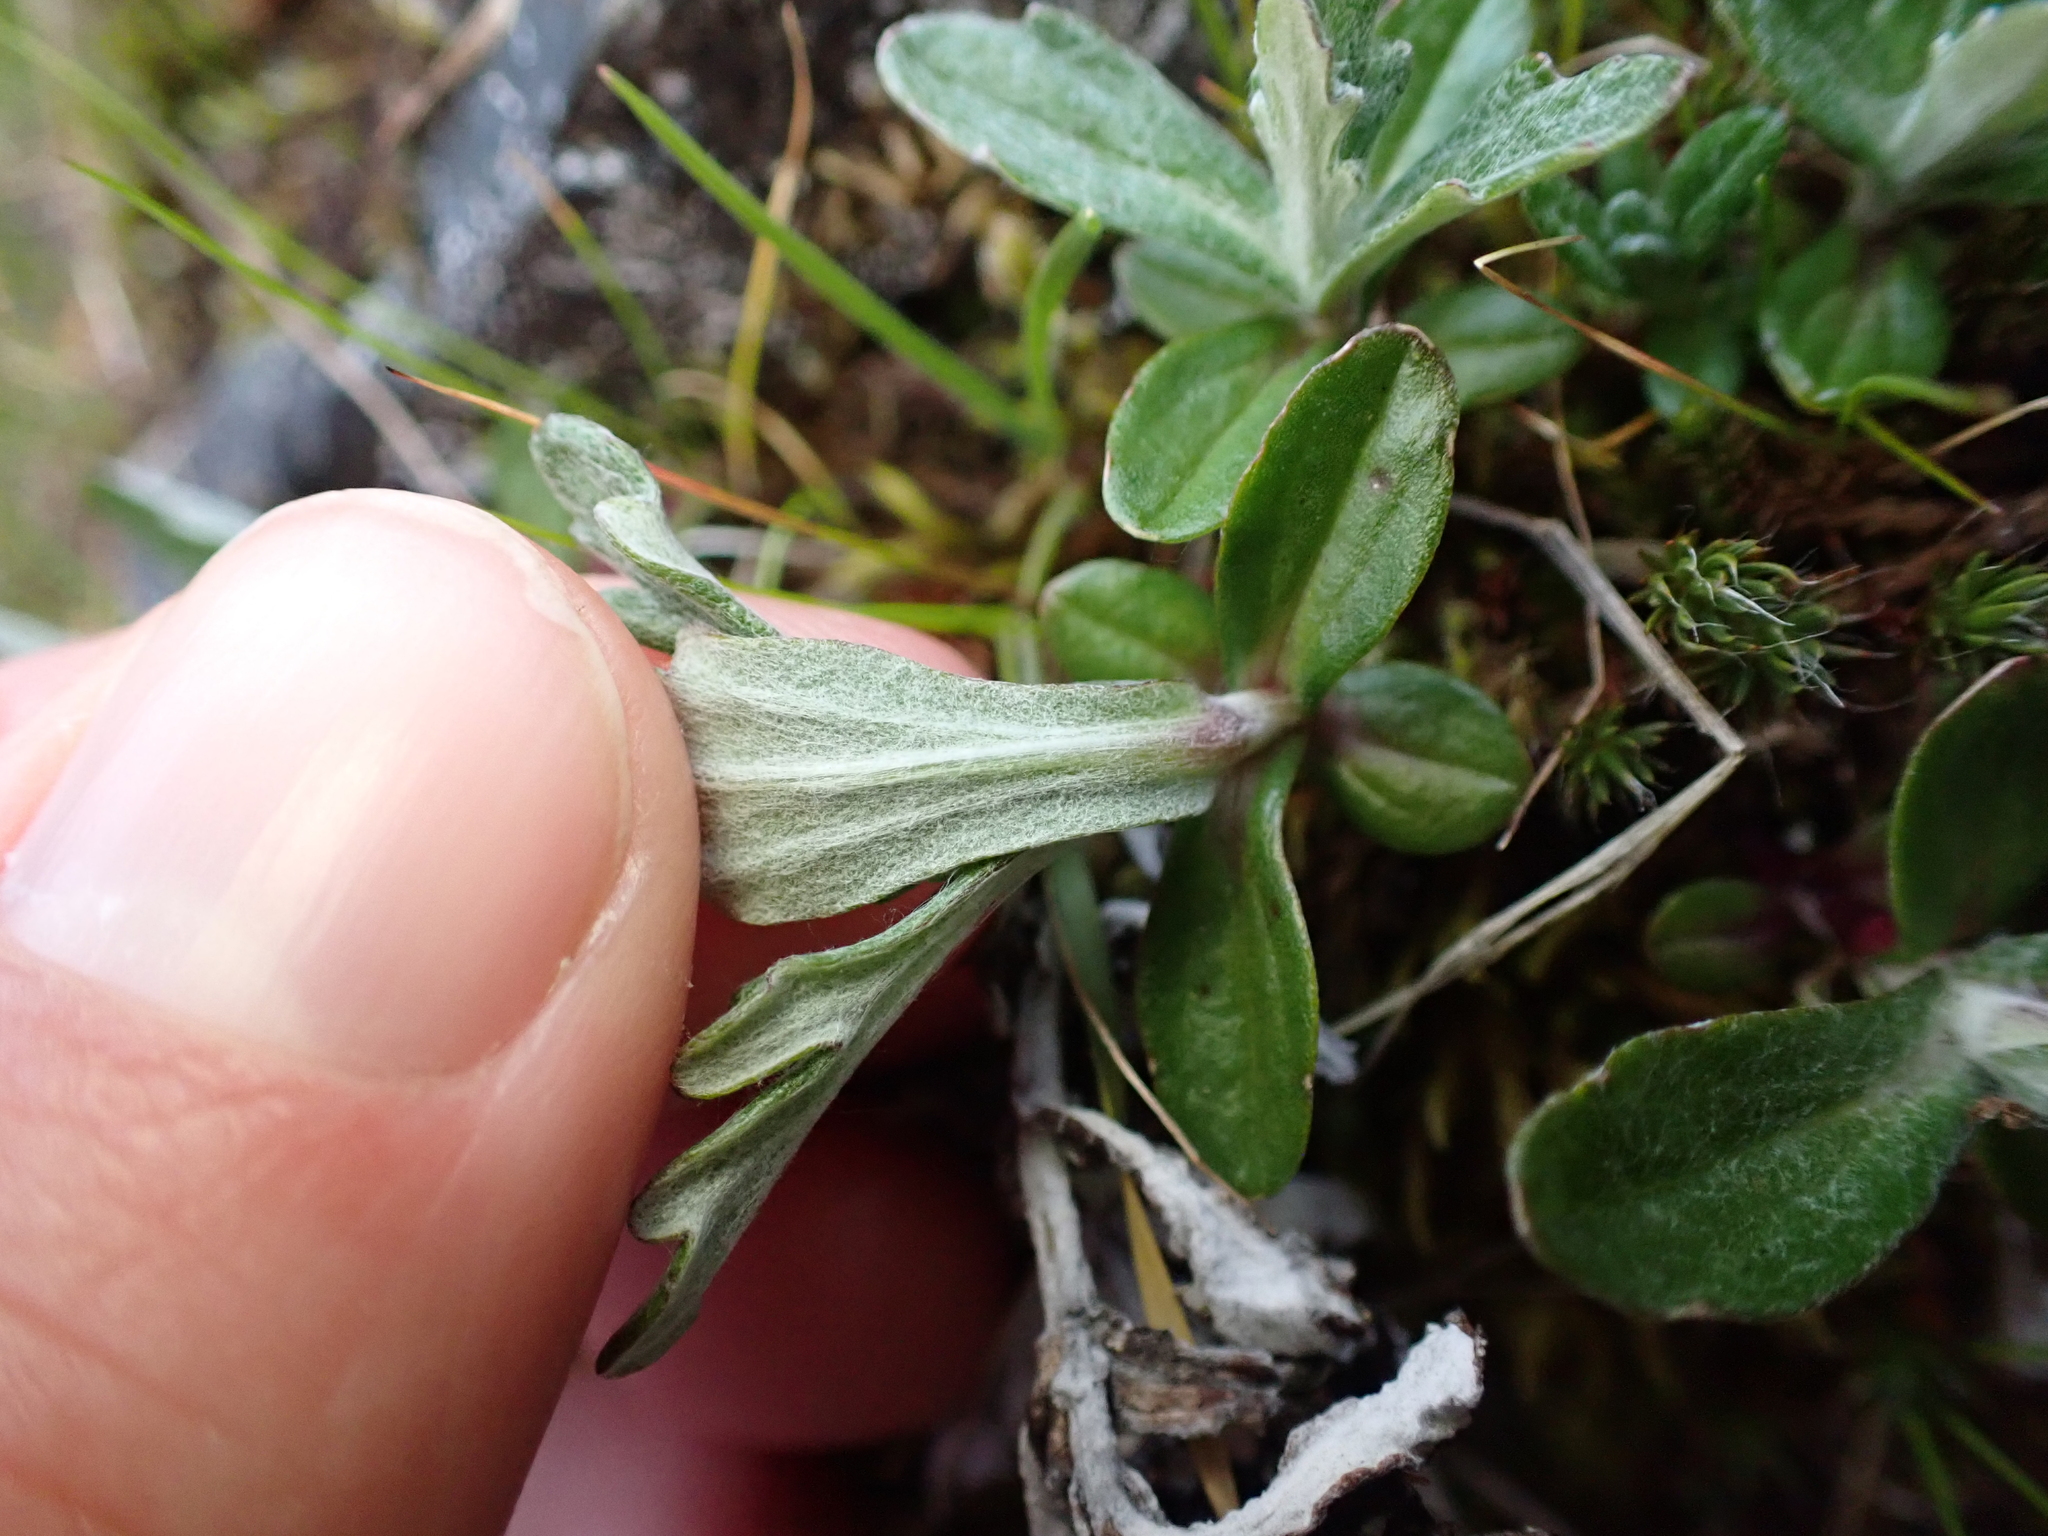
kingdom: Plantae
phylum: Tracheophyta
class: Magnoliopsida
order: Asterales
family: Asteraceae
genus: Eriophyllum
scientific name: Eriophyllum lanatum
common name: Common woolly-sunflower
